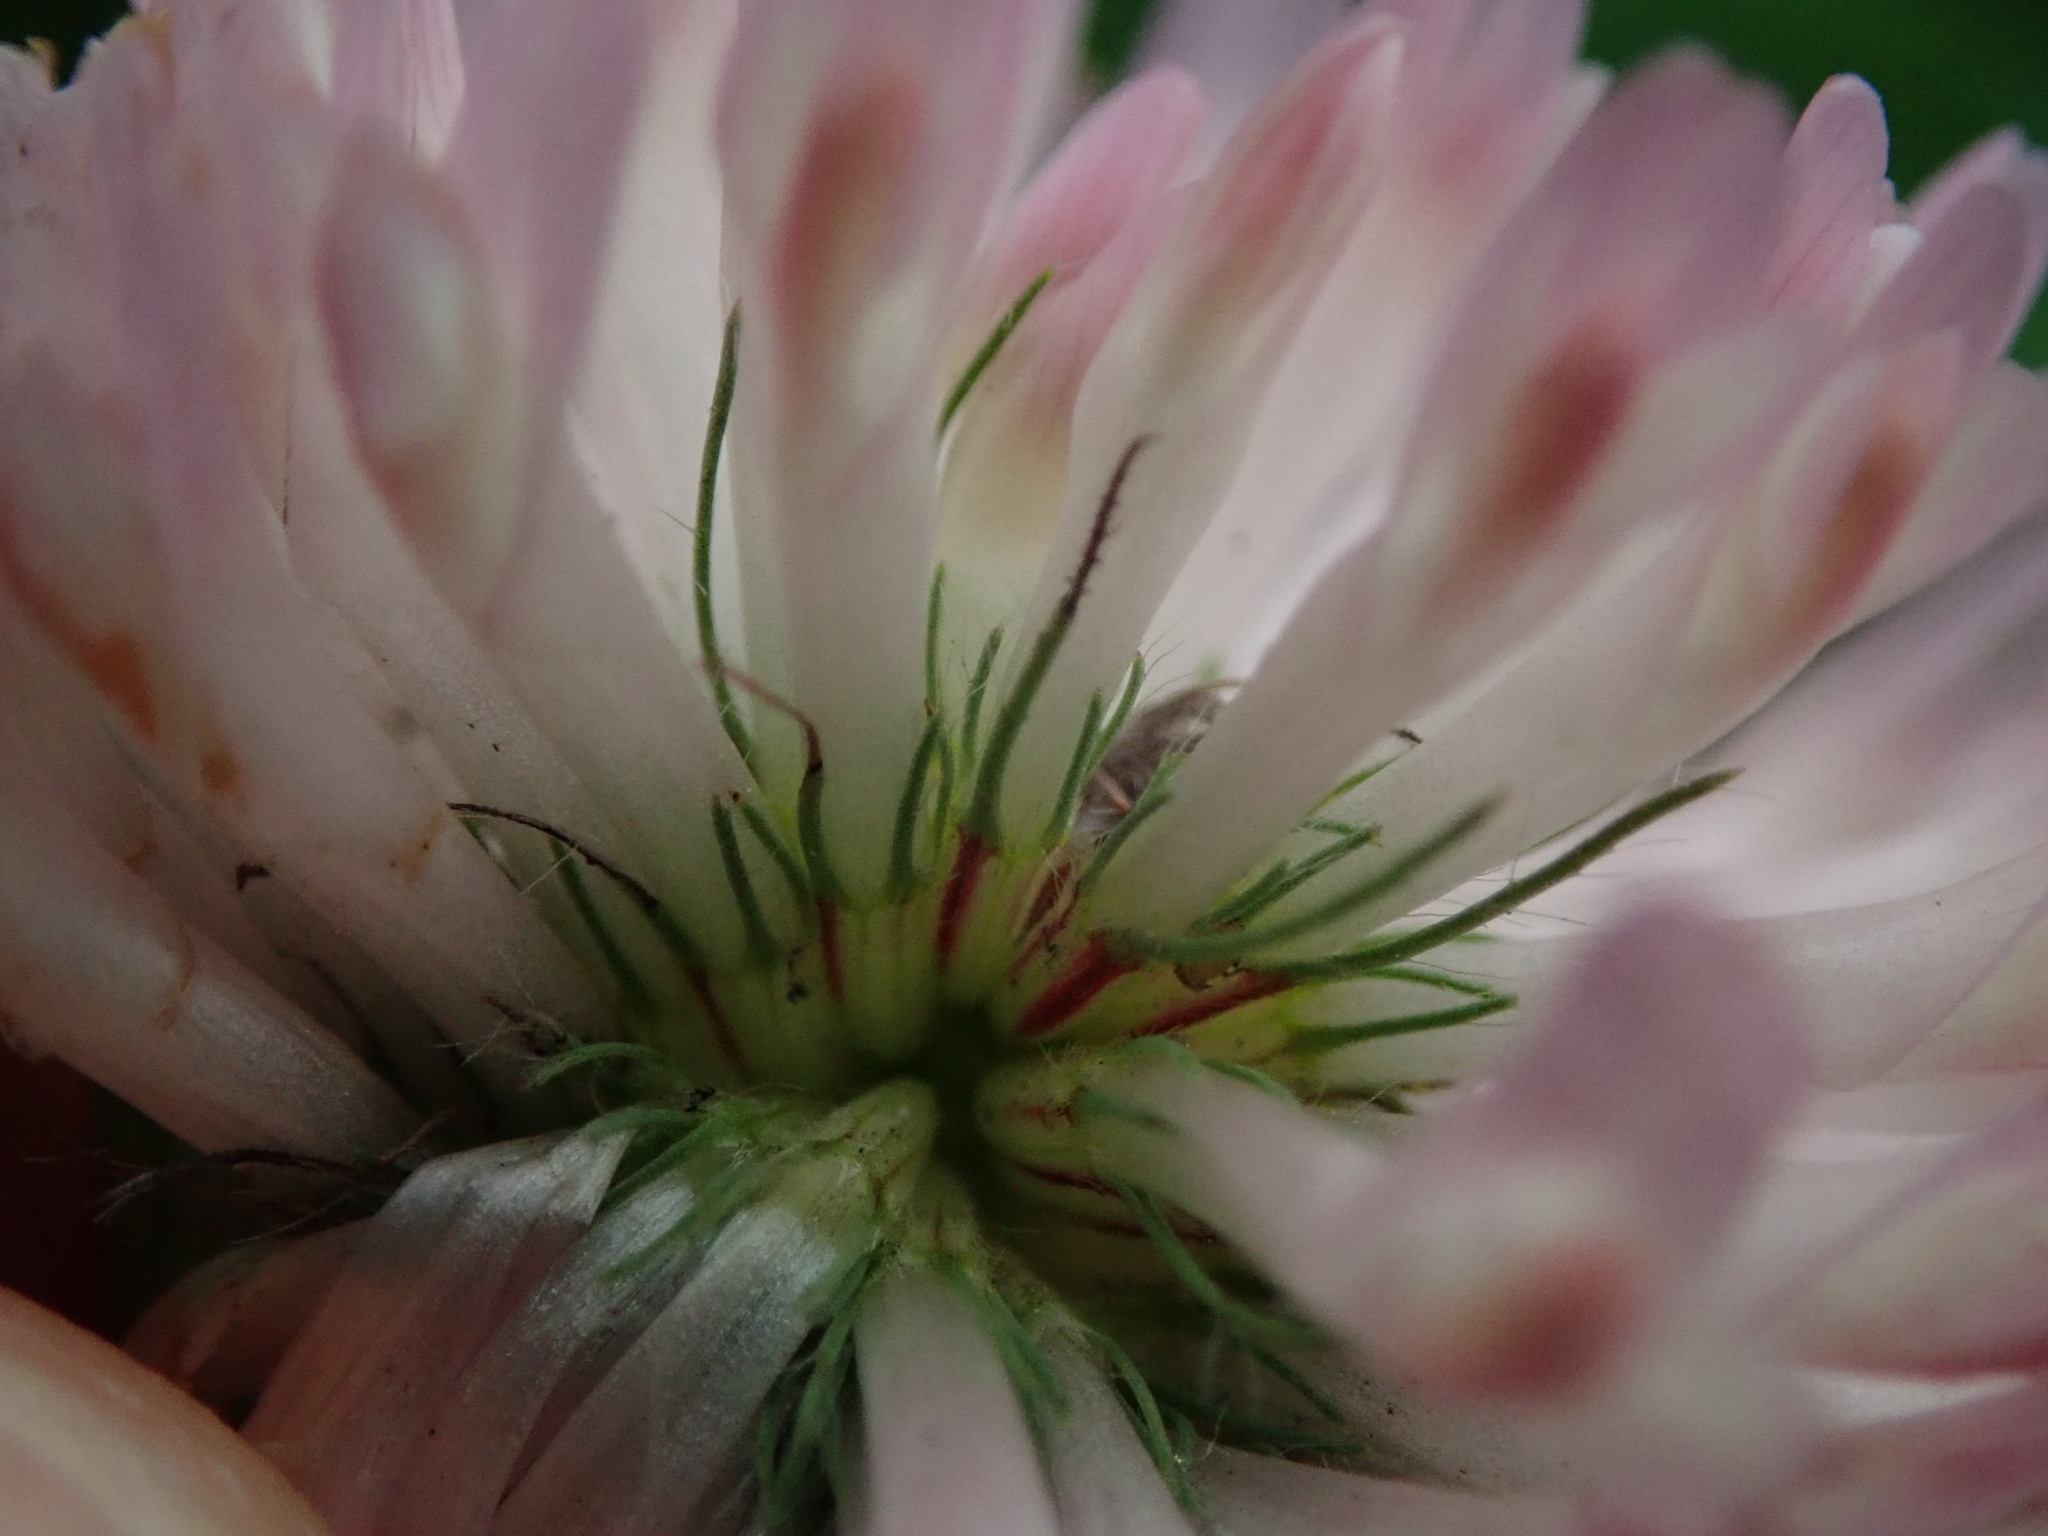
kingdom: Plantae
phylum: Tracheophyta
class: Magnoliopsida
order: Fabales
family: Fabaceae
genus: Trifolium
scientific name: Trifolium pratense
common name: Red clover
